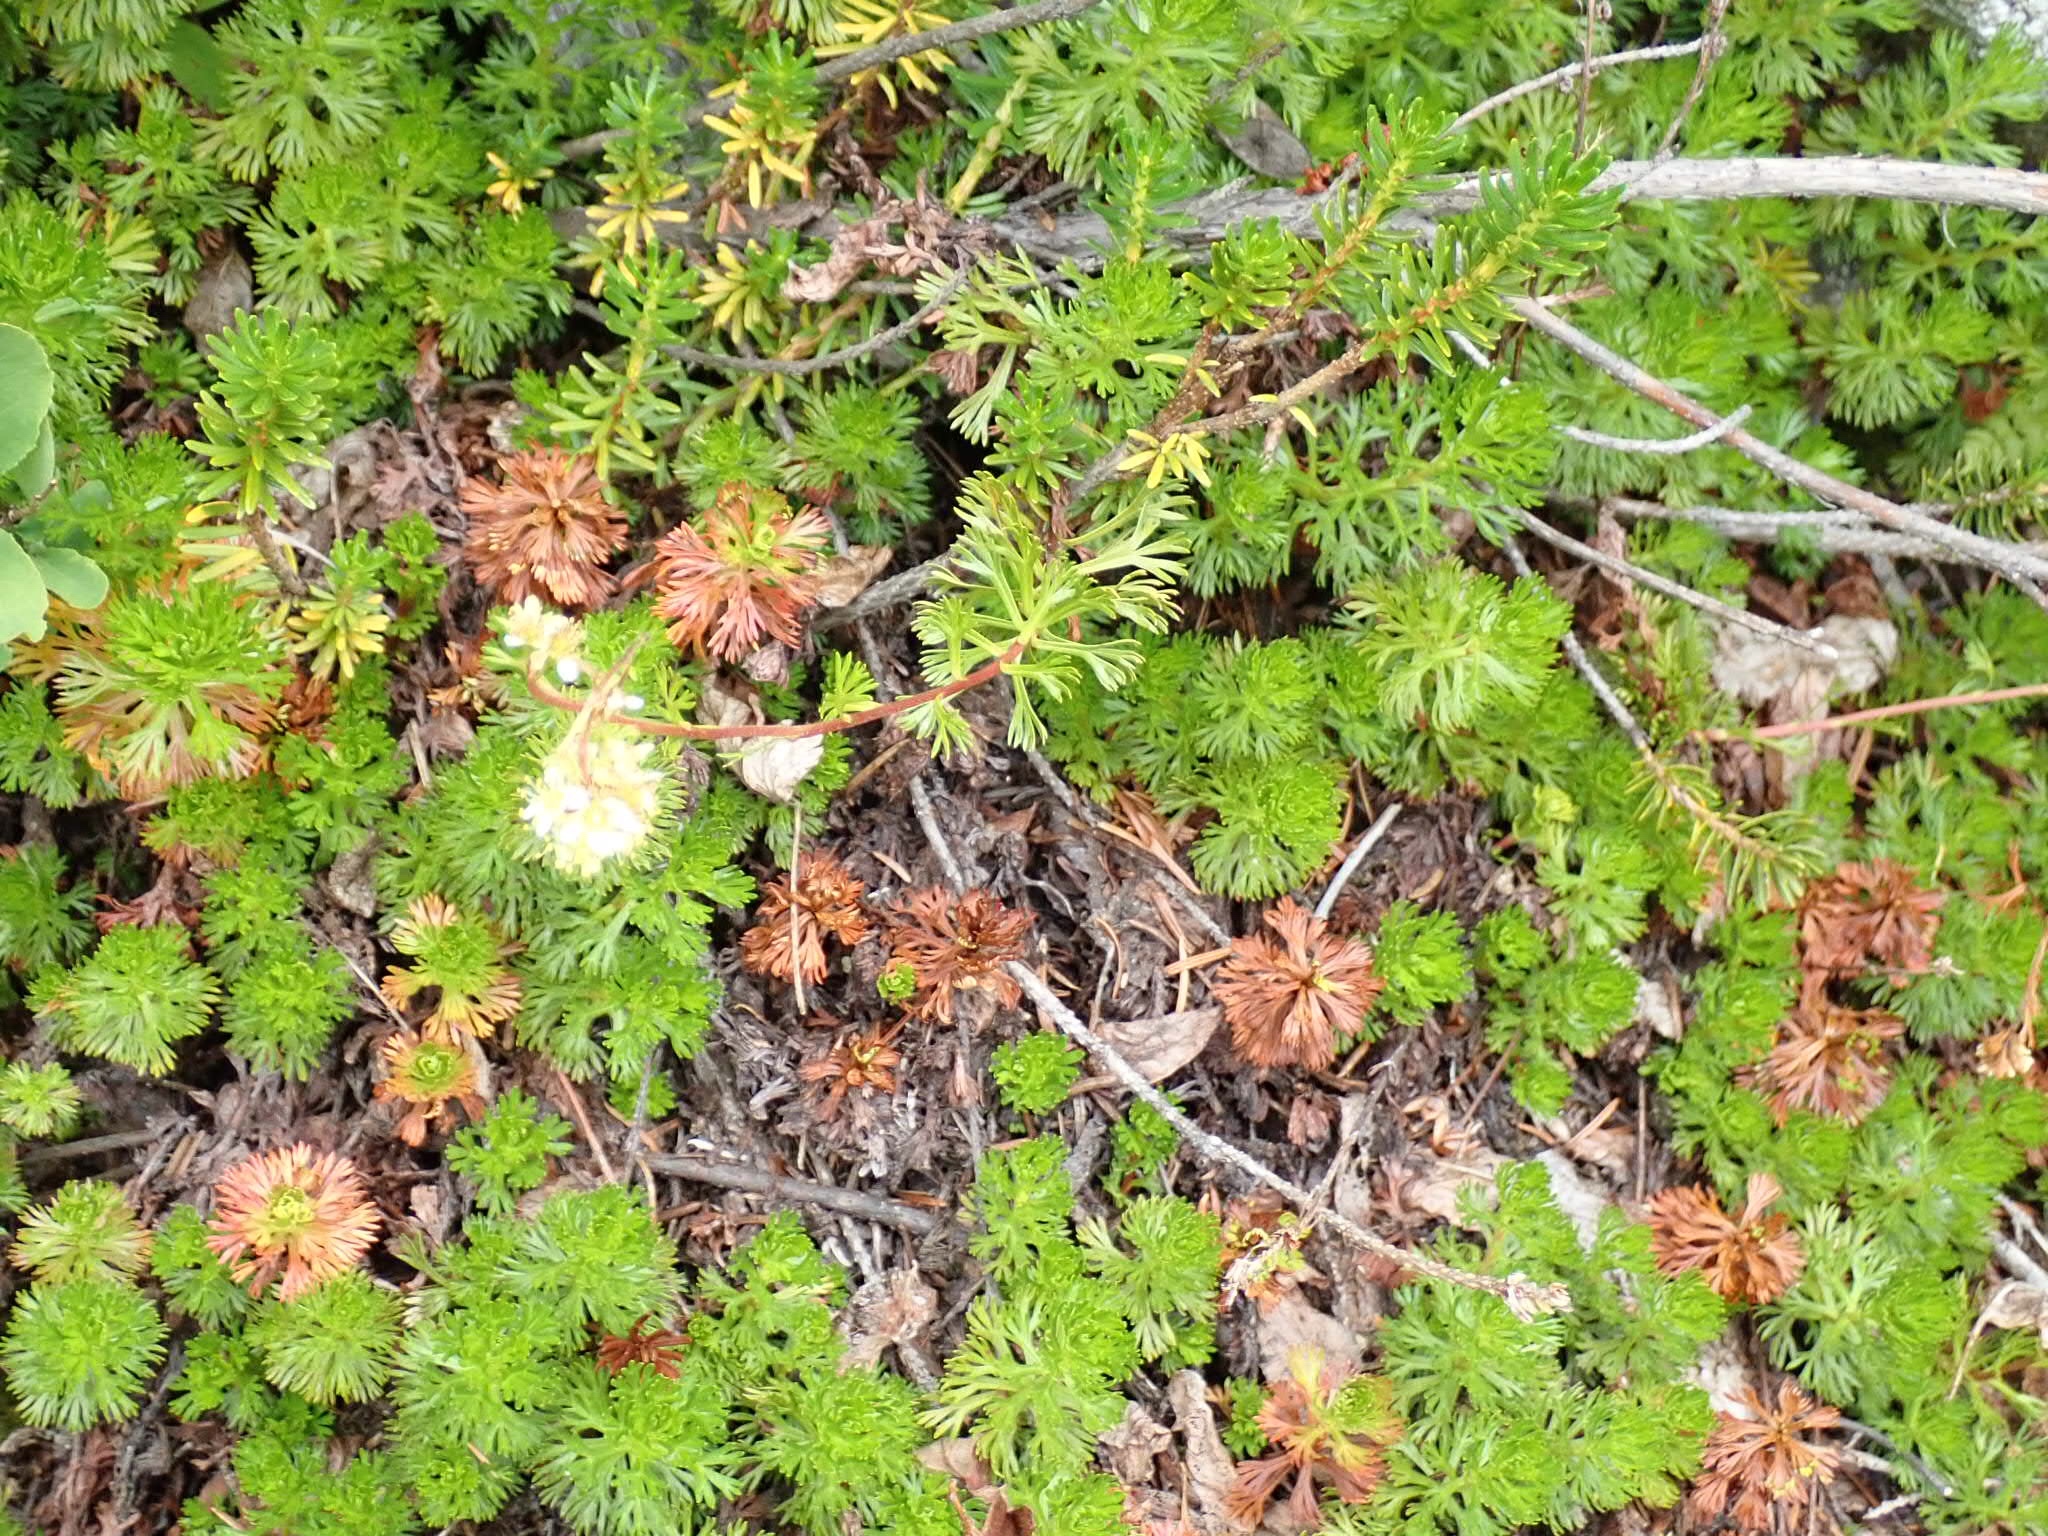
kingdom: Plantae
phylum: Tracheophyta
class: Magnoliopsida
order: Rosales
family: Rosaceae
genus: Luetkea
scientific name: Luetkea pectinata
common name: Partridgefoot
